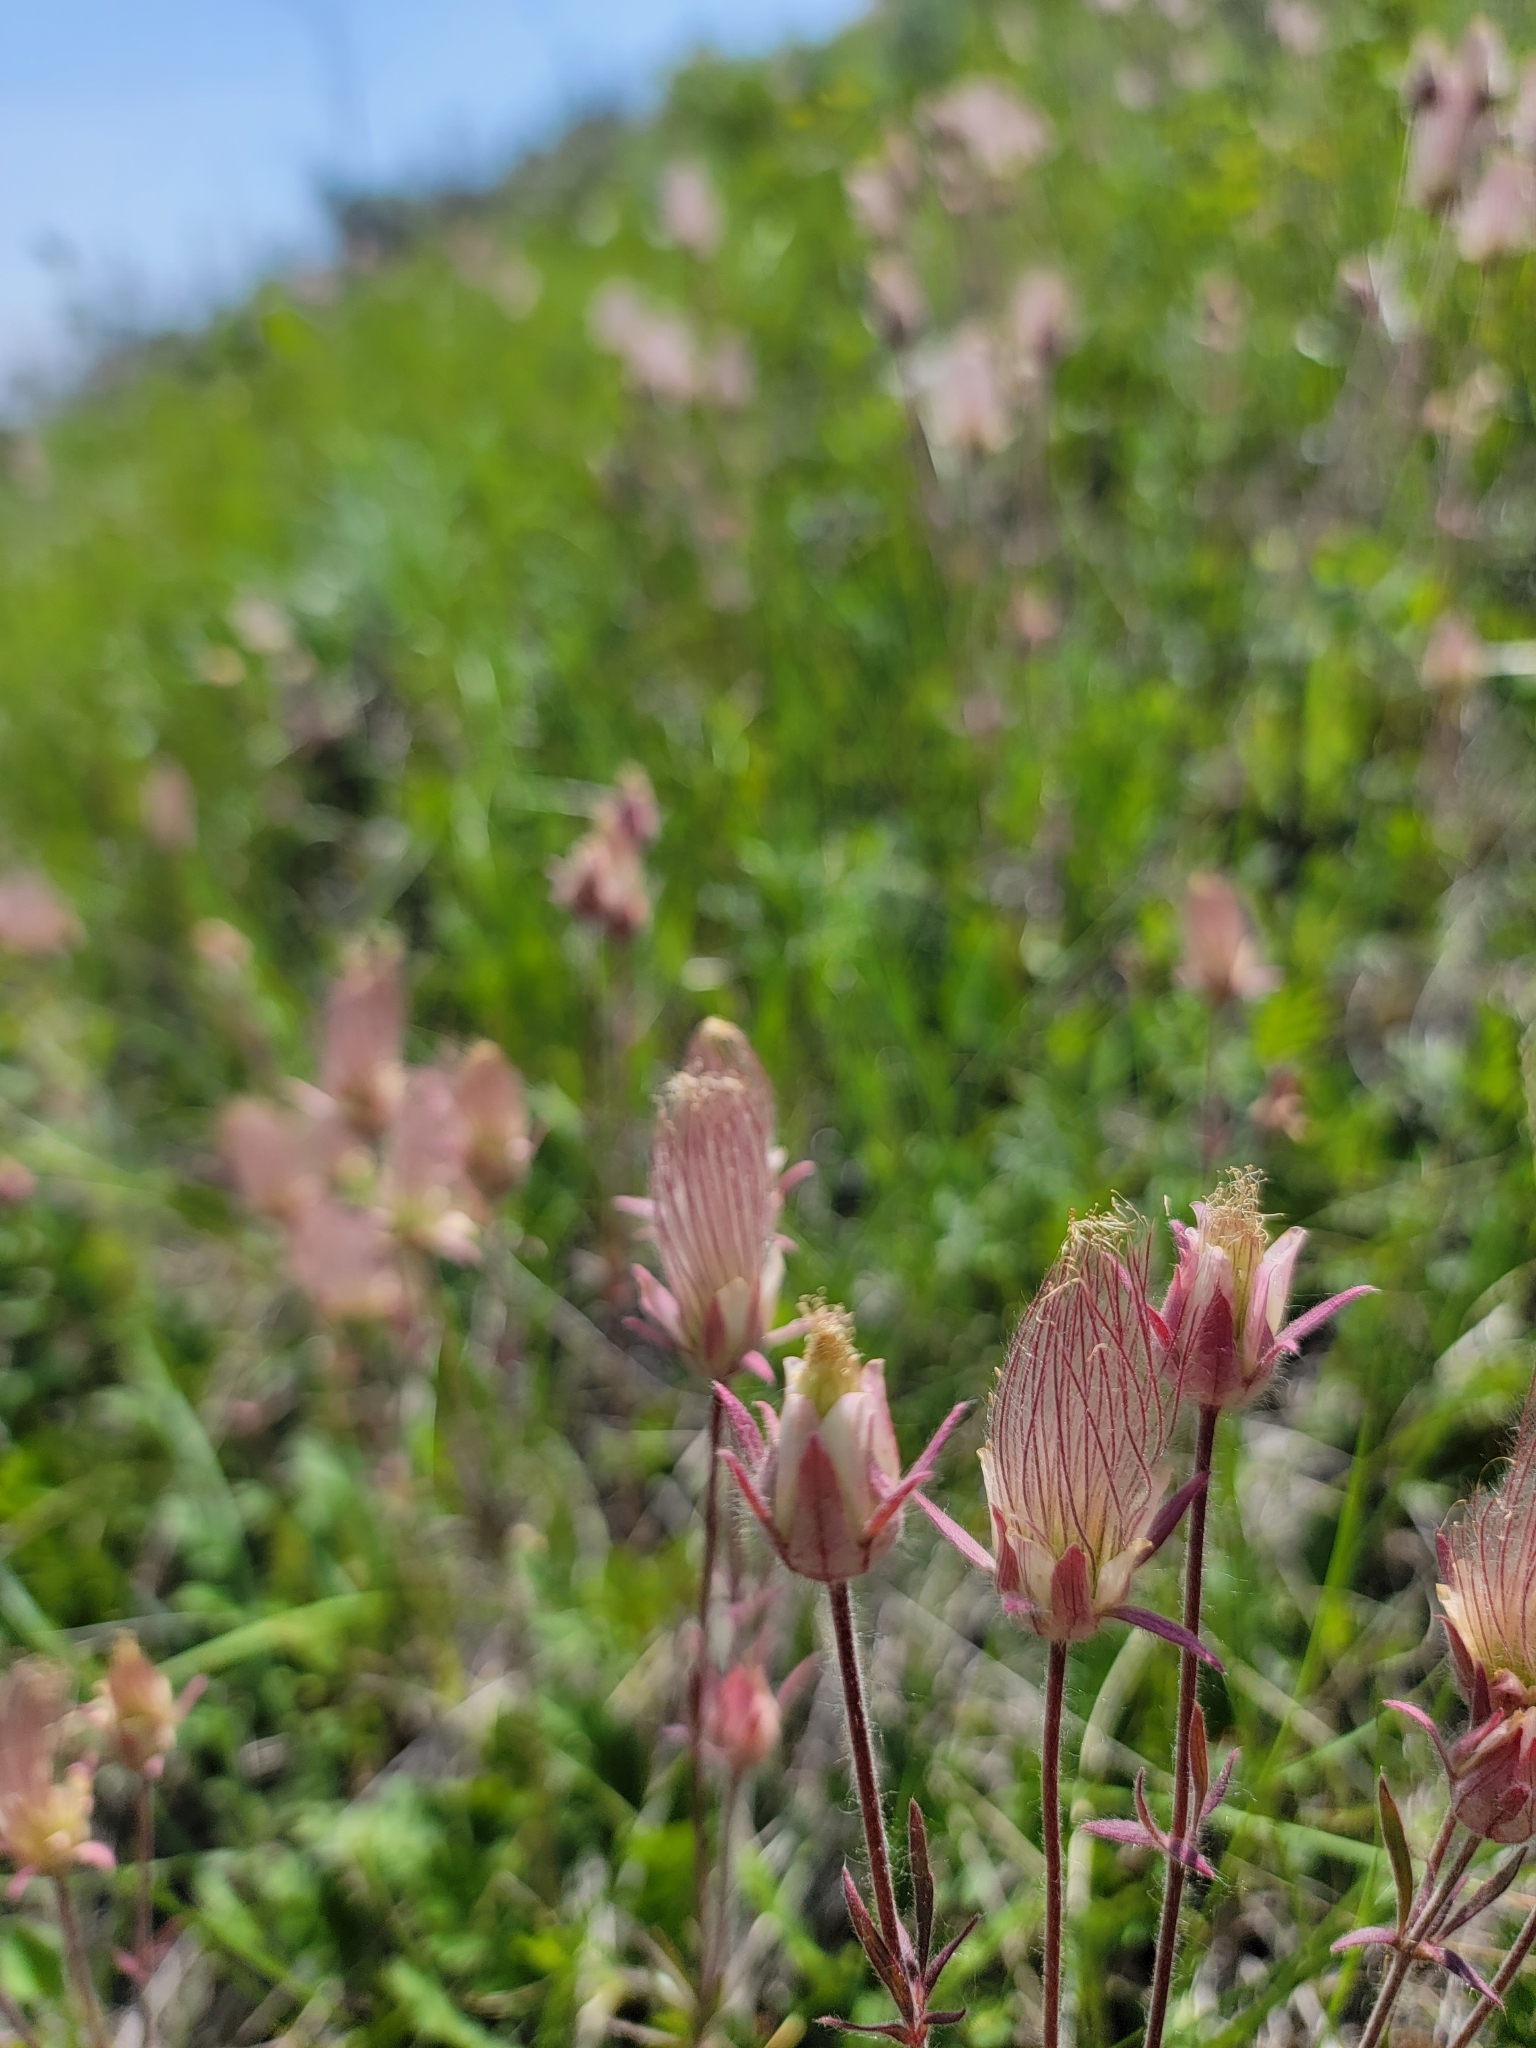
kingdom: Plantae
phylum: Tracheophyta
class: Magnoliopsida
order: Rosales
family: Rosaceae
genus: Geum
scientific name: Geum triflorum
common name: Old man's whiskers
